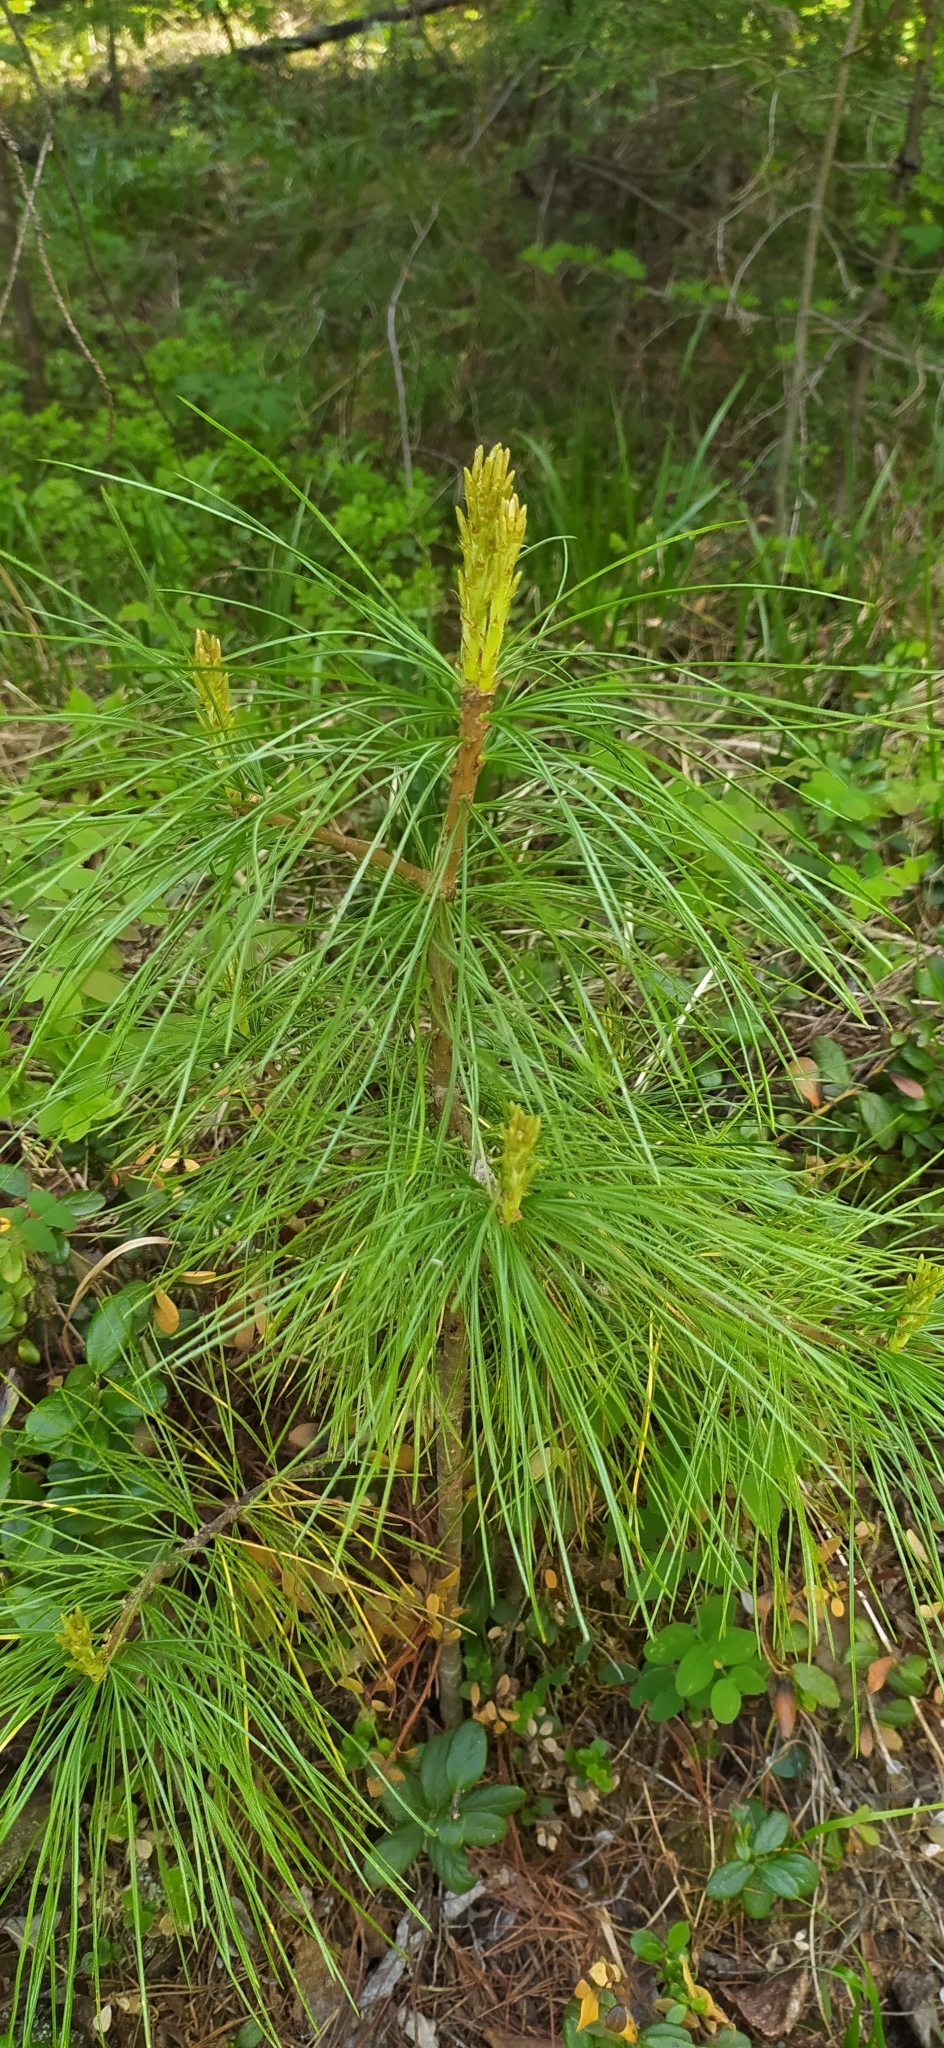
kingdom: Plantae
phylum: Tracheophyta
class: Pinopsida
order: Pinales
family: Pinaceae
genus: Pinus
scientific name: Pinus sibirica
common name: Siberian pine
